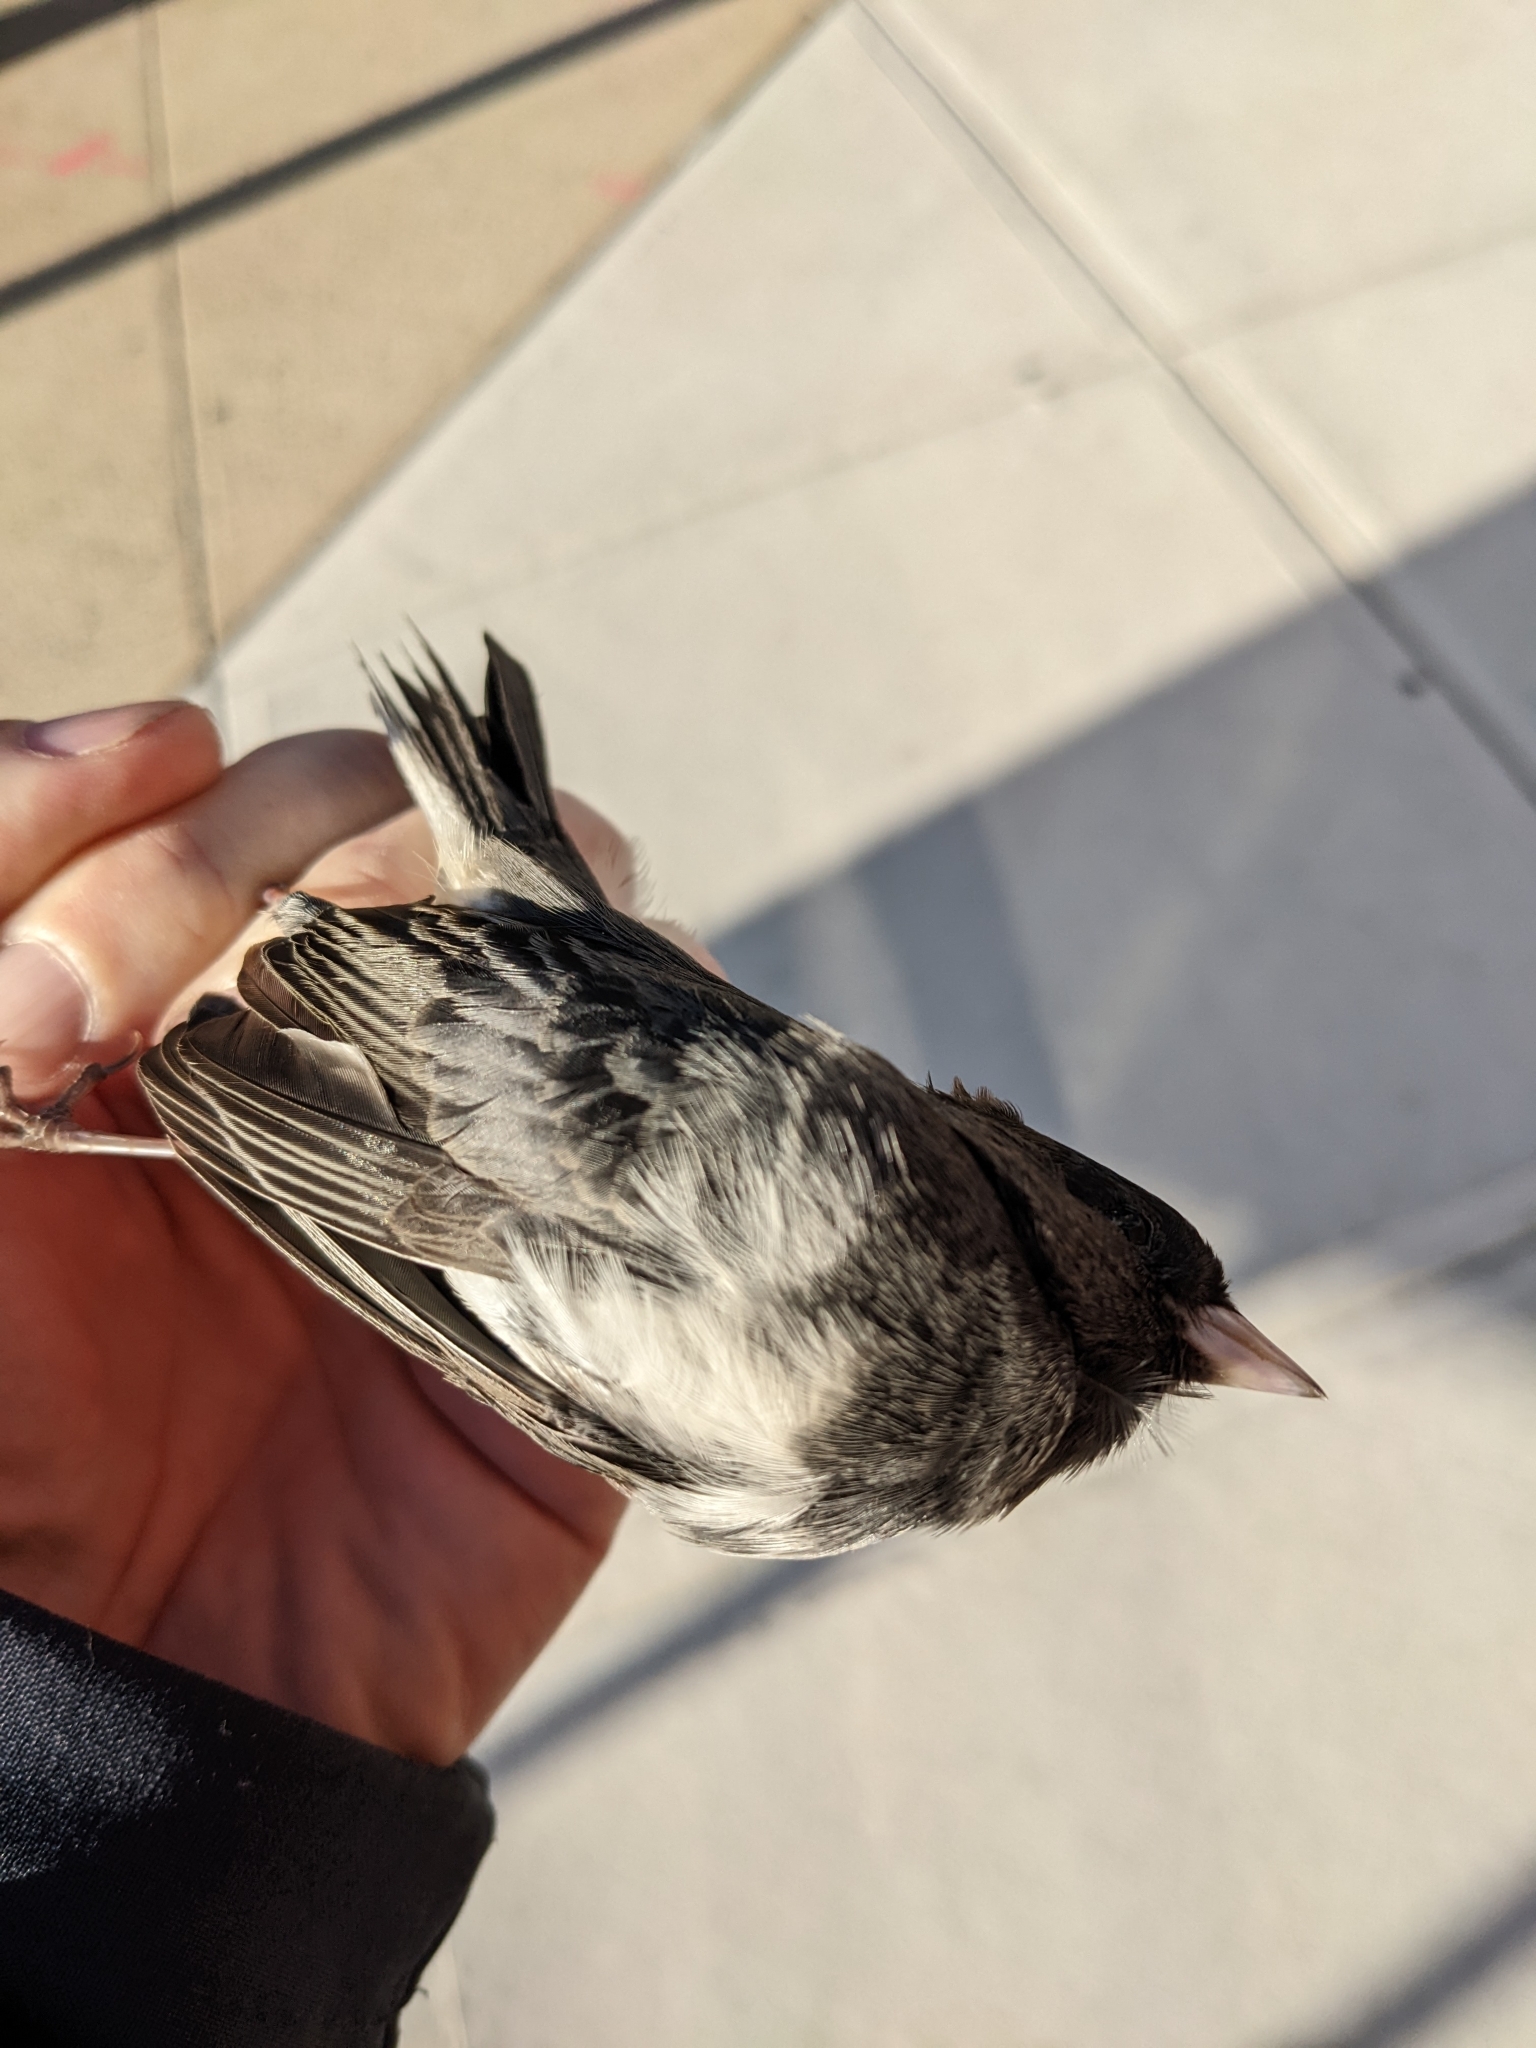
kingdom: Animalia
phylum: Chordata
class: Aves
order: Passeriformes
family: Passerellidae
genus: Junco
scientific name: Junco hyemalis
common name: Dark-eyed junco
